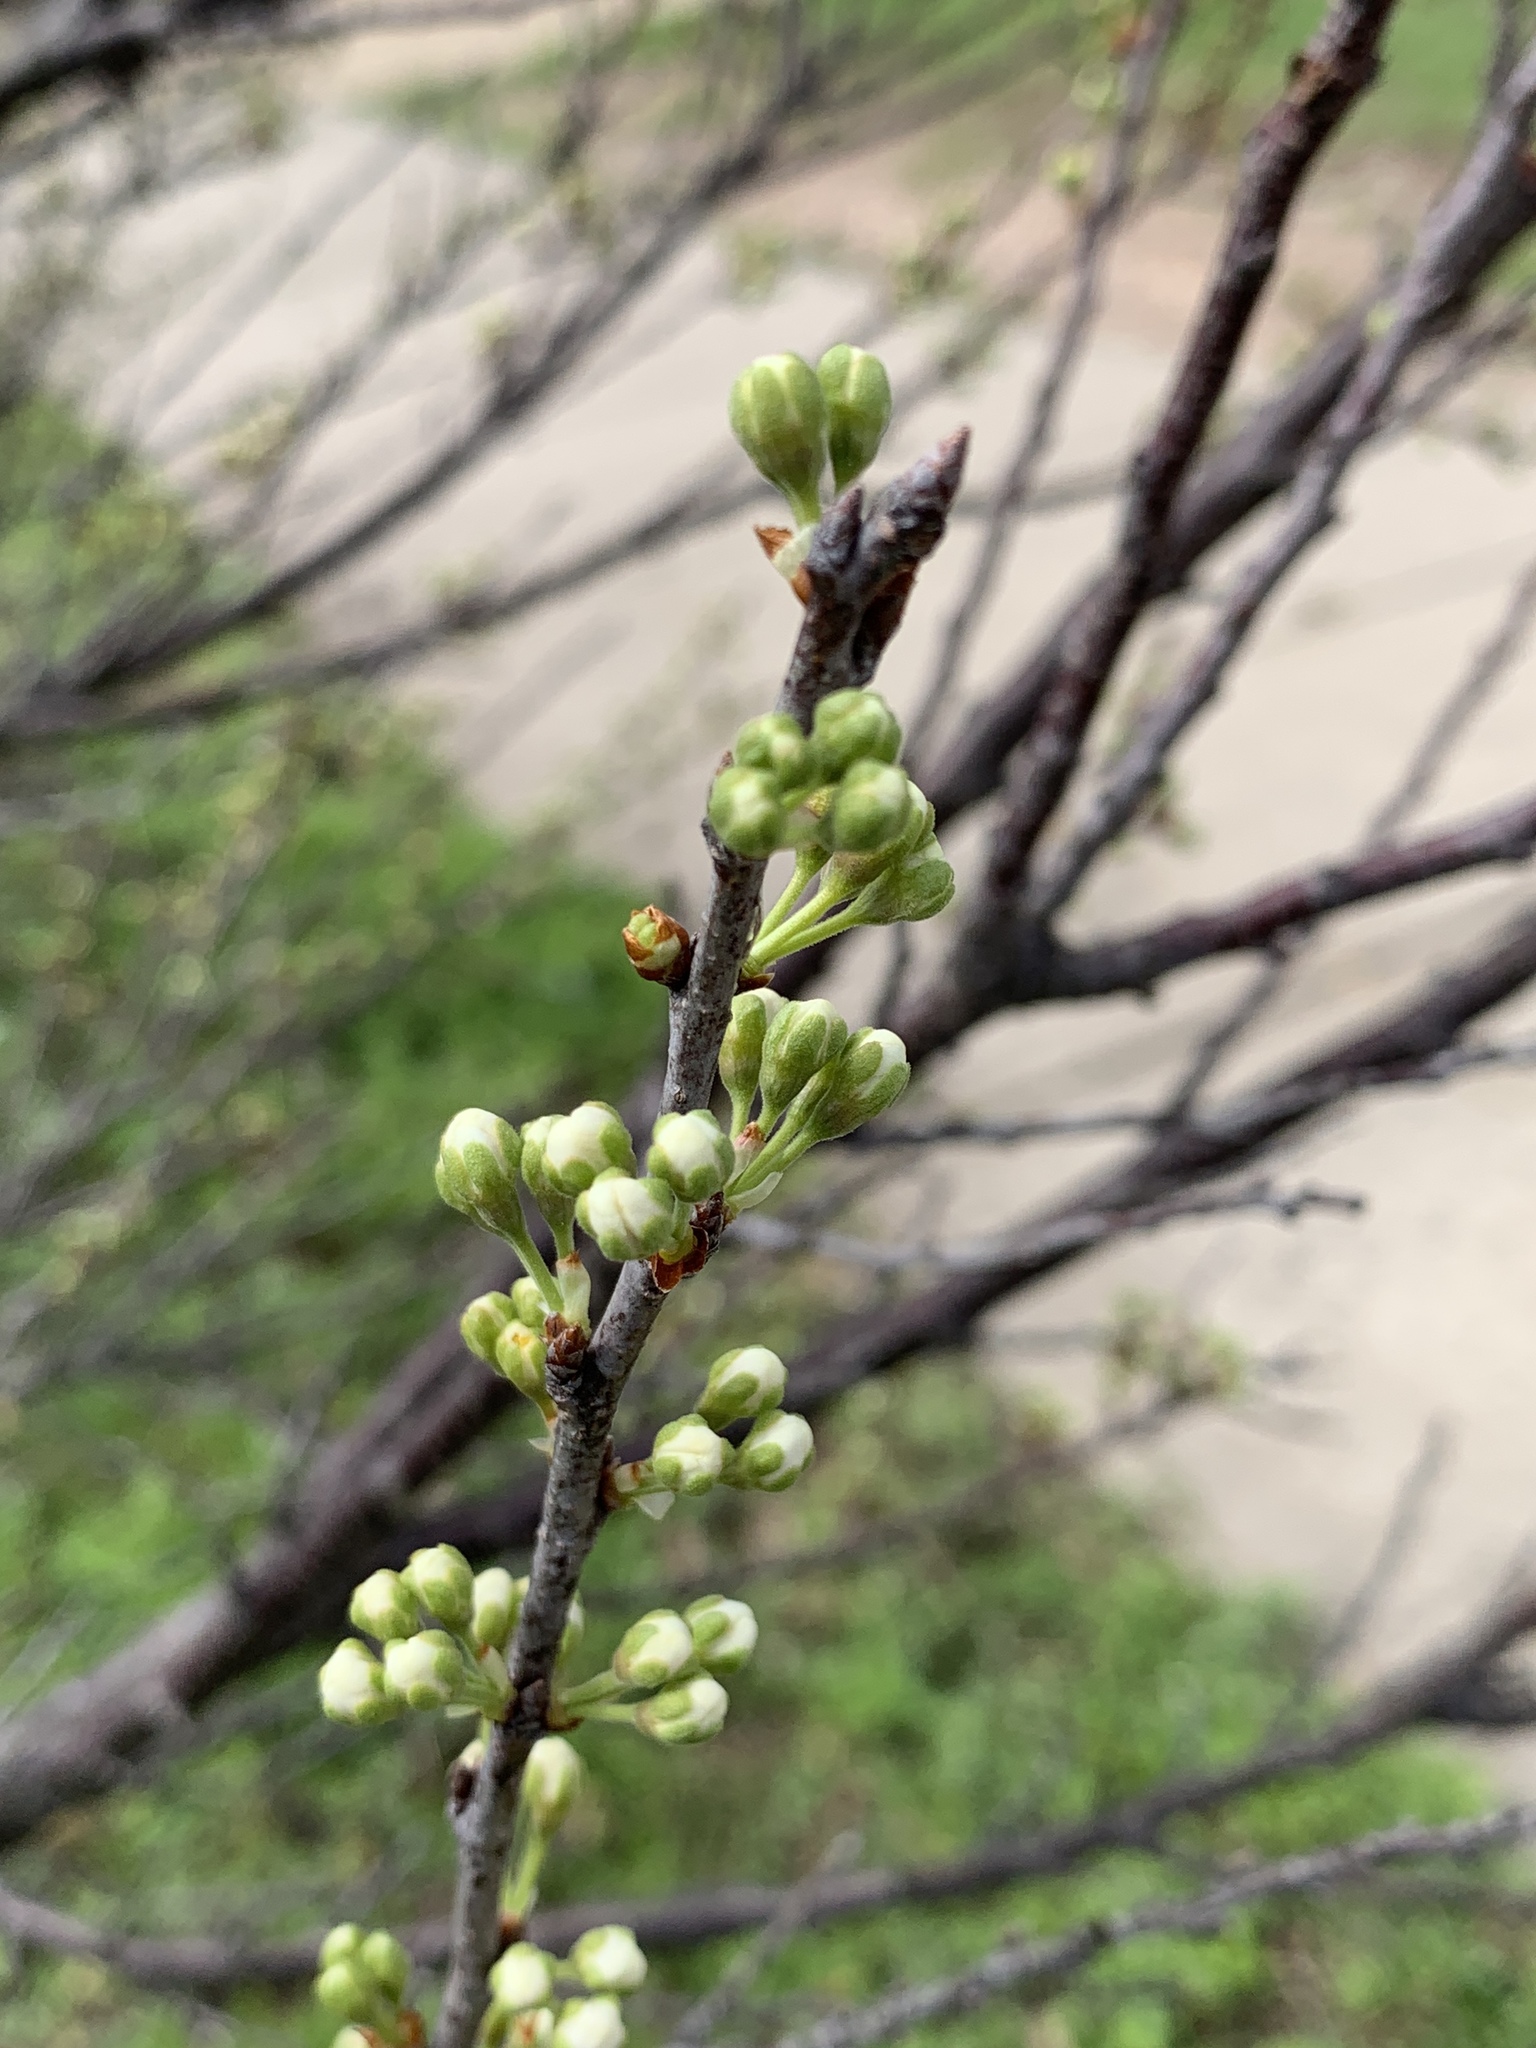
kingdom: Plantae
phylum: Tracheophyta
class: Magnoliopsida
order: Rosales
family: Rosaceae
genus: Prunus
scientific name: Prunus maritima
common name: Beach plum
